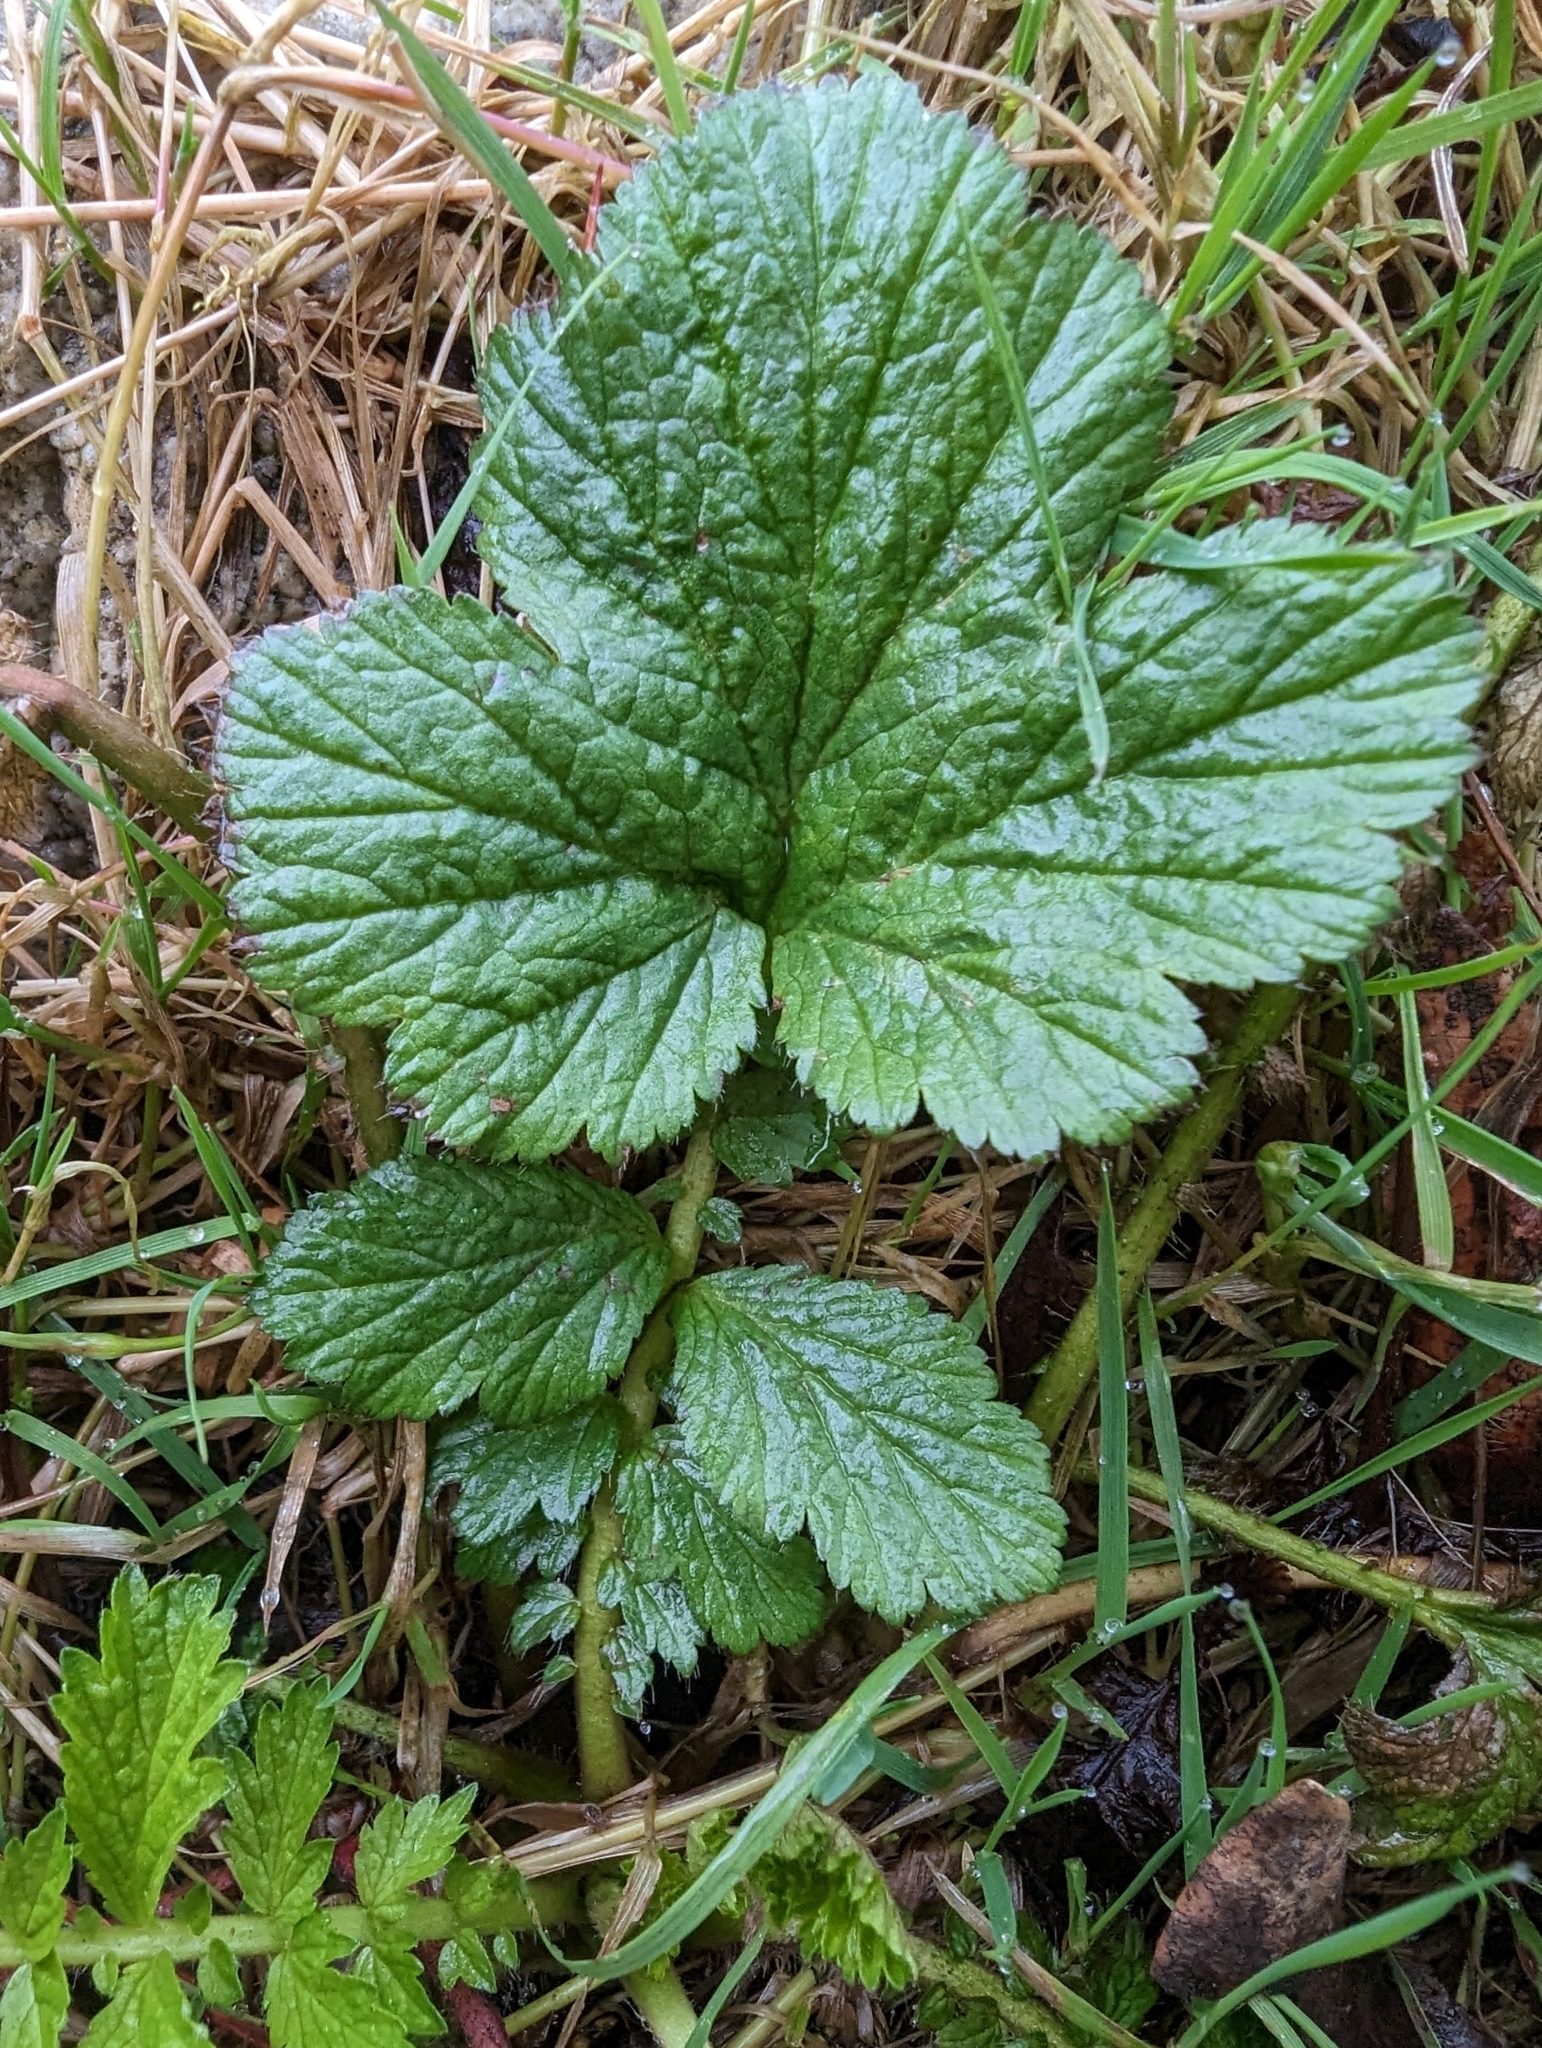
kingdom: Plantae
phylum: Tracheophyta
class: Magnoliopsida
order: Rosales
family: Rosaceae
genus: Geum
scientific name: Geum macrophyllum
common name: Large-leaved avens
